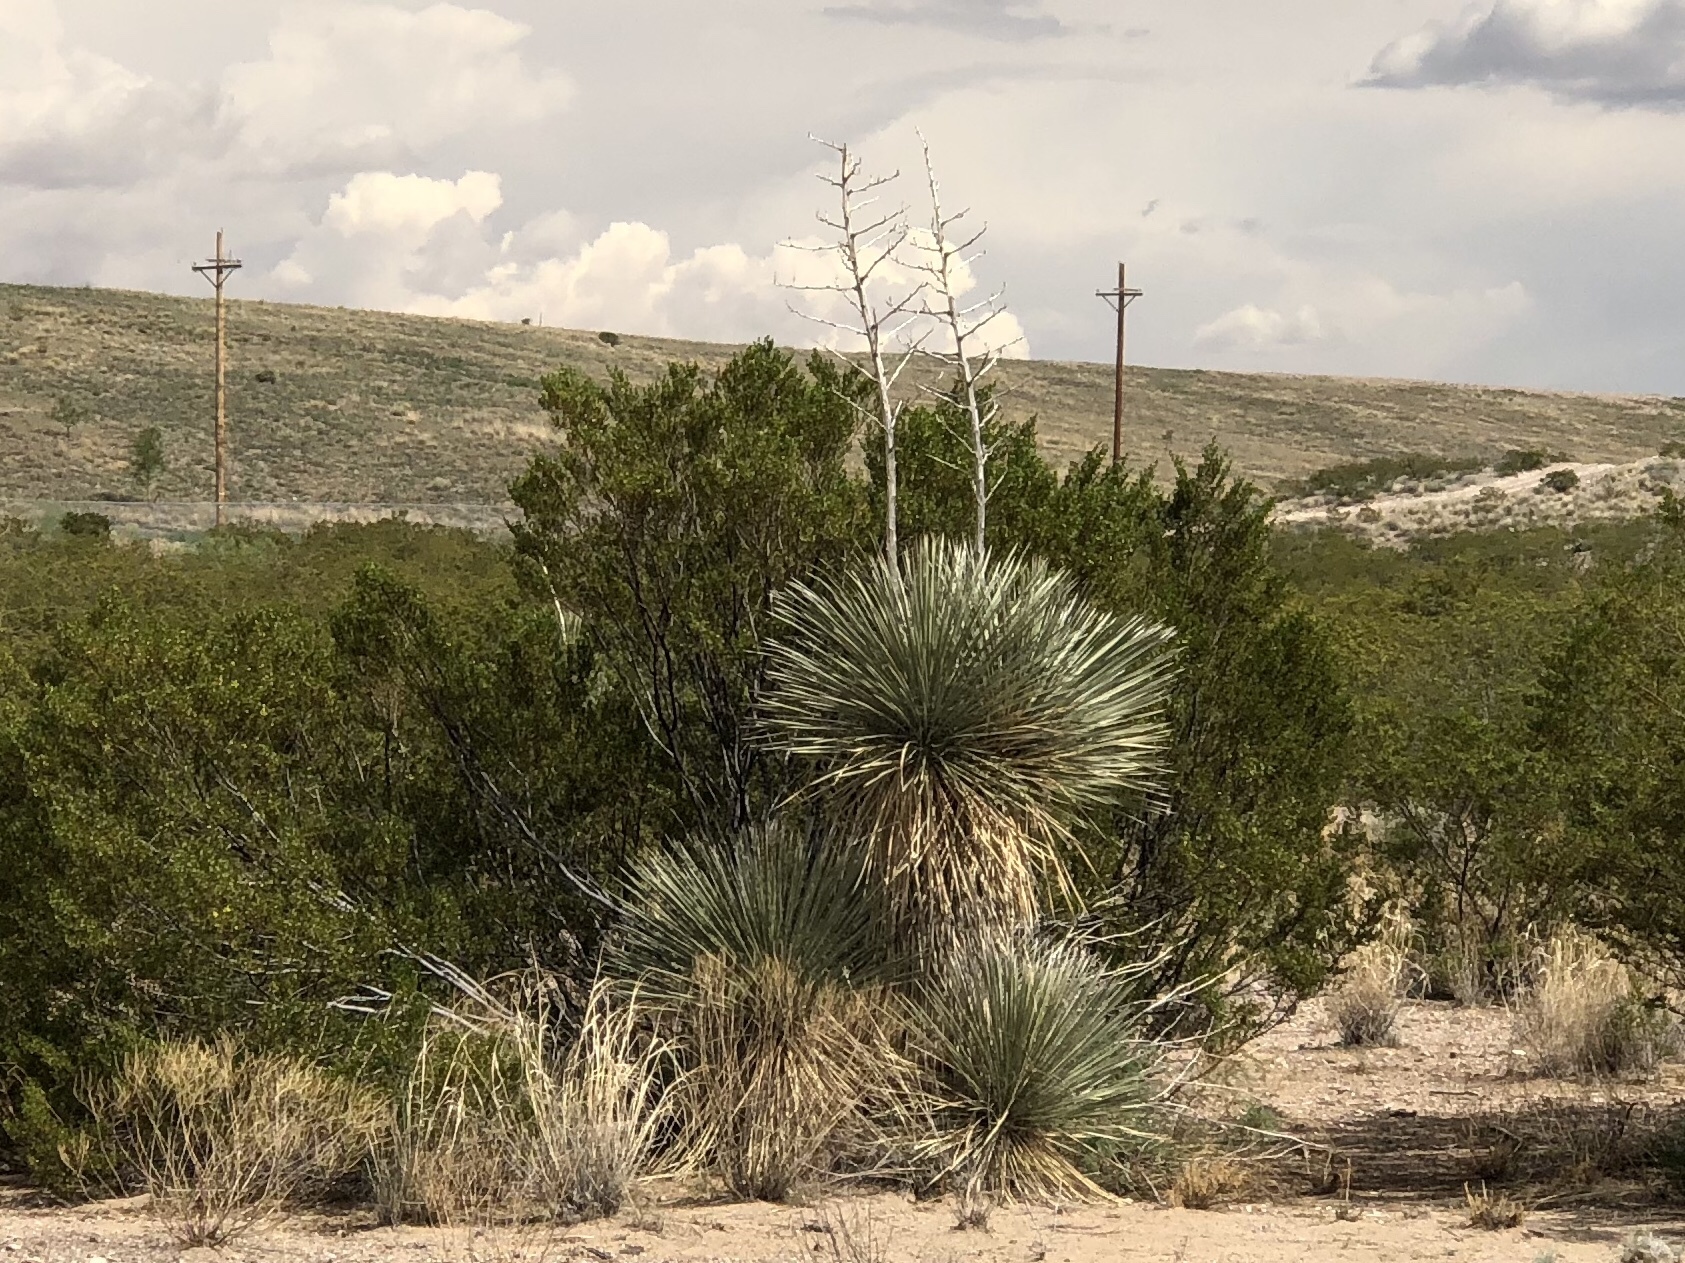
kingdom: Plantae
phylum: Tracheophyta
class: Liliopsida
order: Asparagales
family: Asparagaceae
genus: Yucca
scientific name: Yucca elata
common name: Palmella
